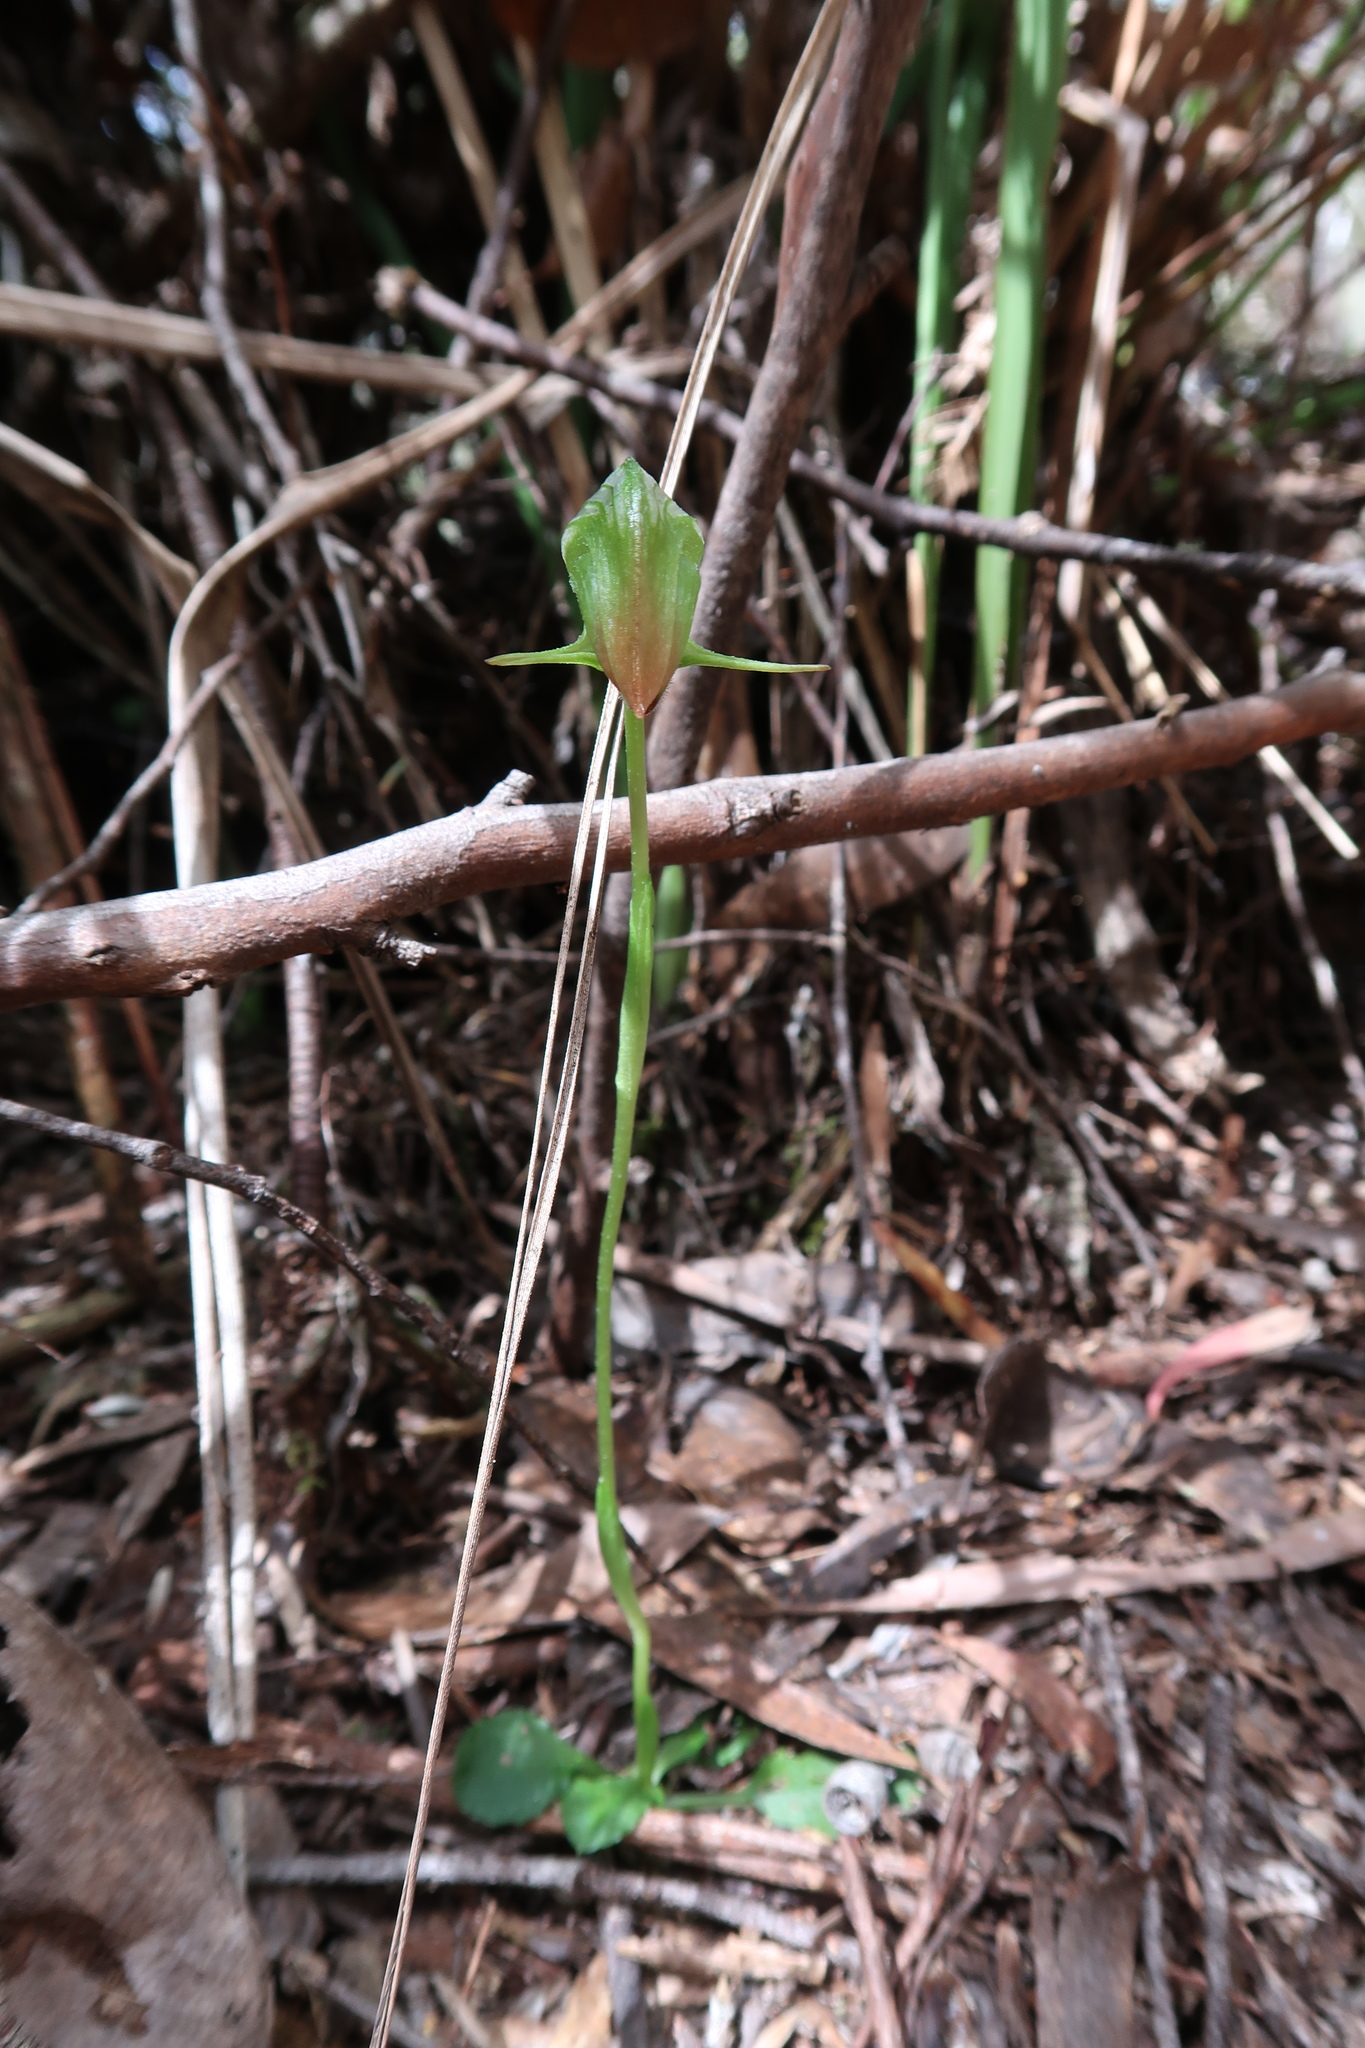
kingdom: Plantae
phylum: Tracheophyta
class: Liliopsida
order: Asparagales
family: Orchidaceae
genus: Pterostylis
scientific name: Pterostylis nutans
